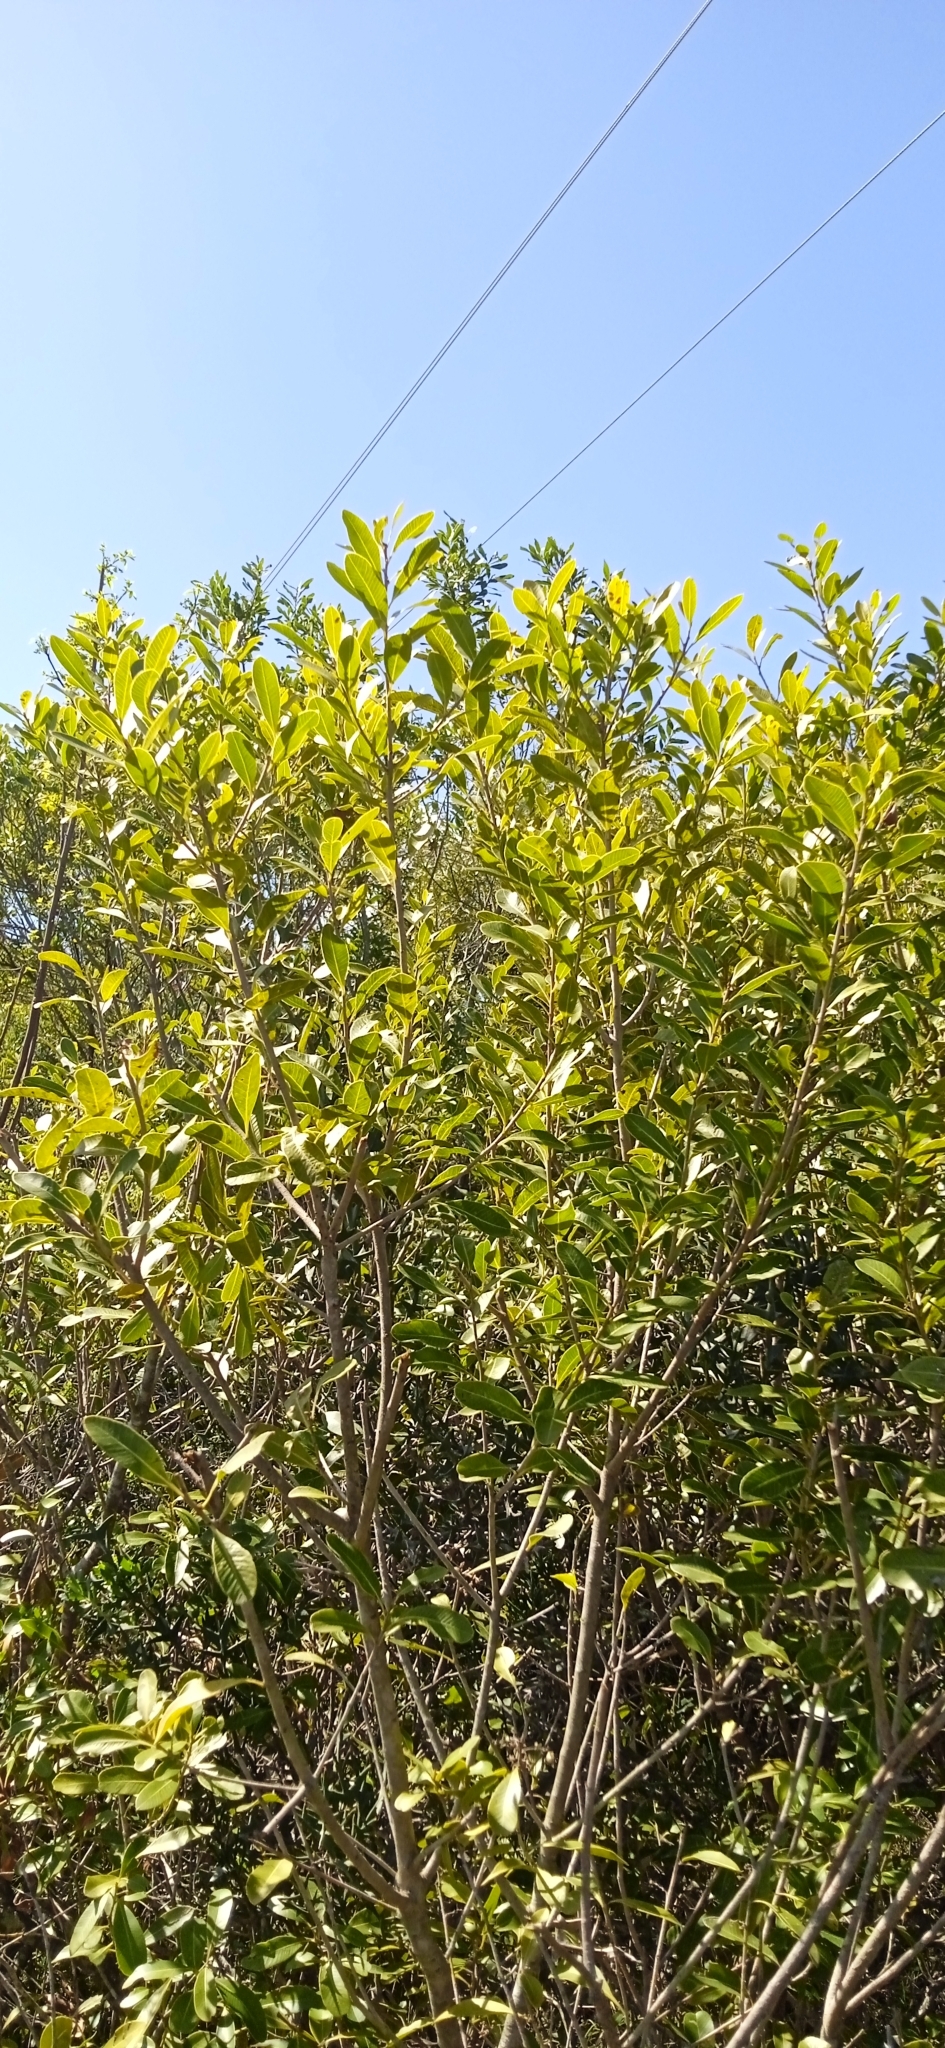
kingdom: Plantae
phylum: Tracheophyta
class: Magnoliopsida
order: Sapindales
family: Anacardiaceae
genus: Lithraea
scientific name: Lithraea brasiliensis
